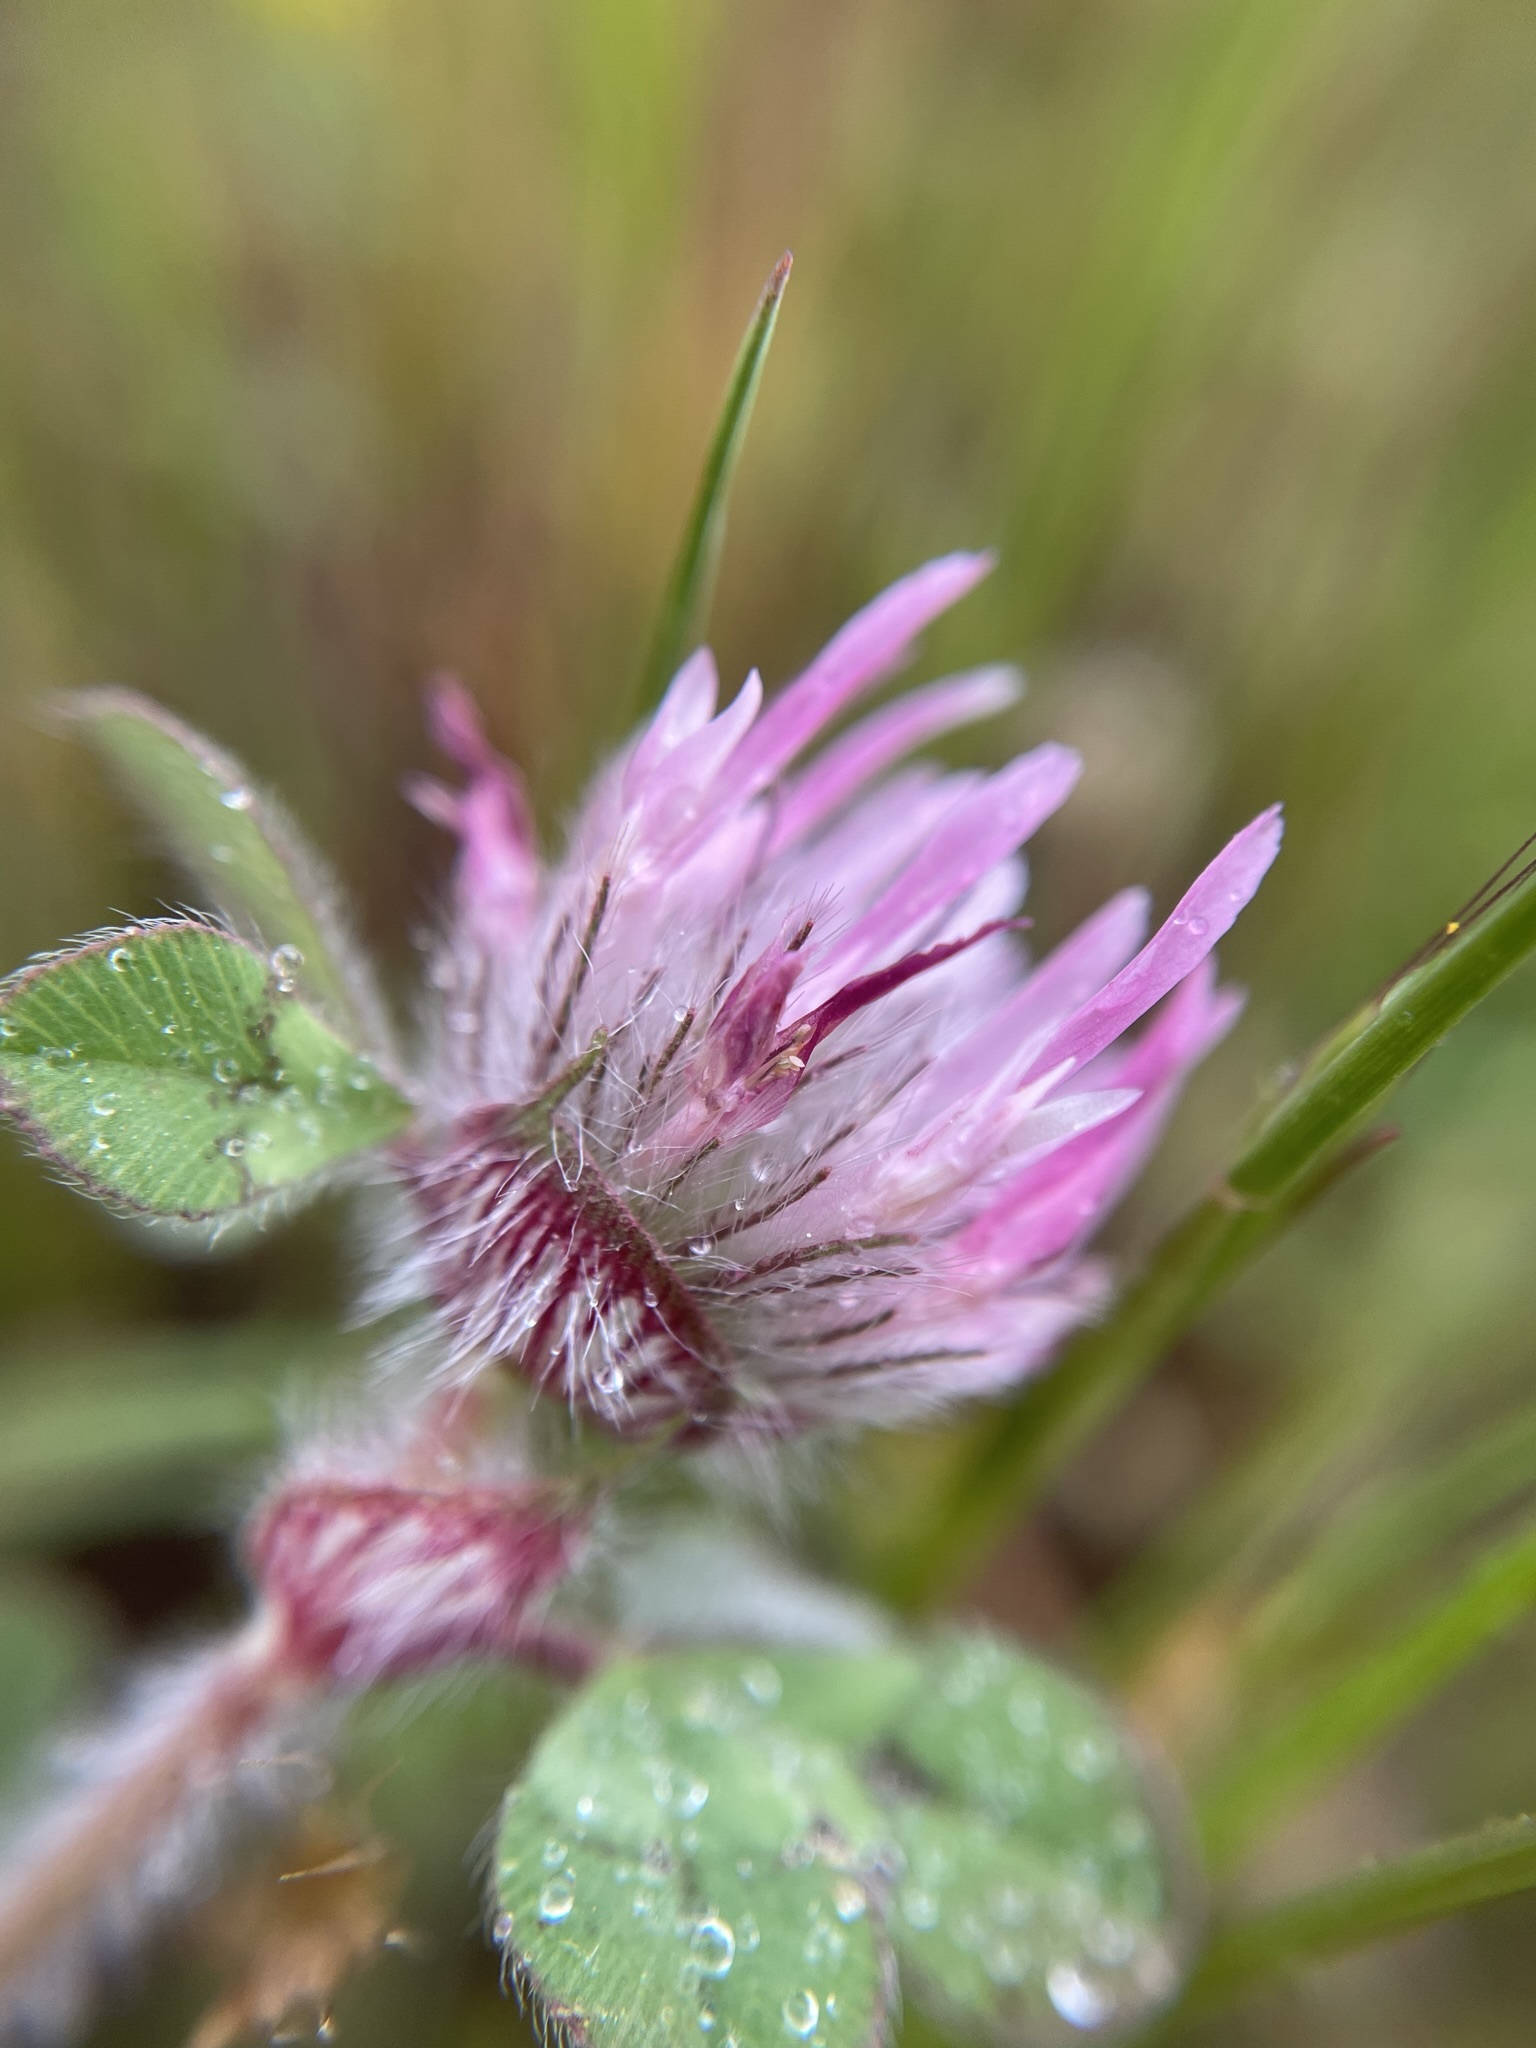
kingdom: Plantae
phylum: Tracheophyta
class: Magnoliopsida
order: Fabales
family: Fabaceae
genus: Trifolium
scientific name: Trifolium hirtum
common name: Rose clover
